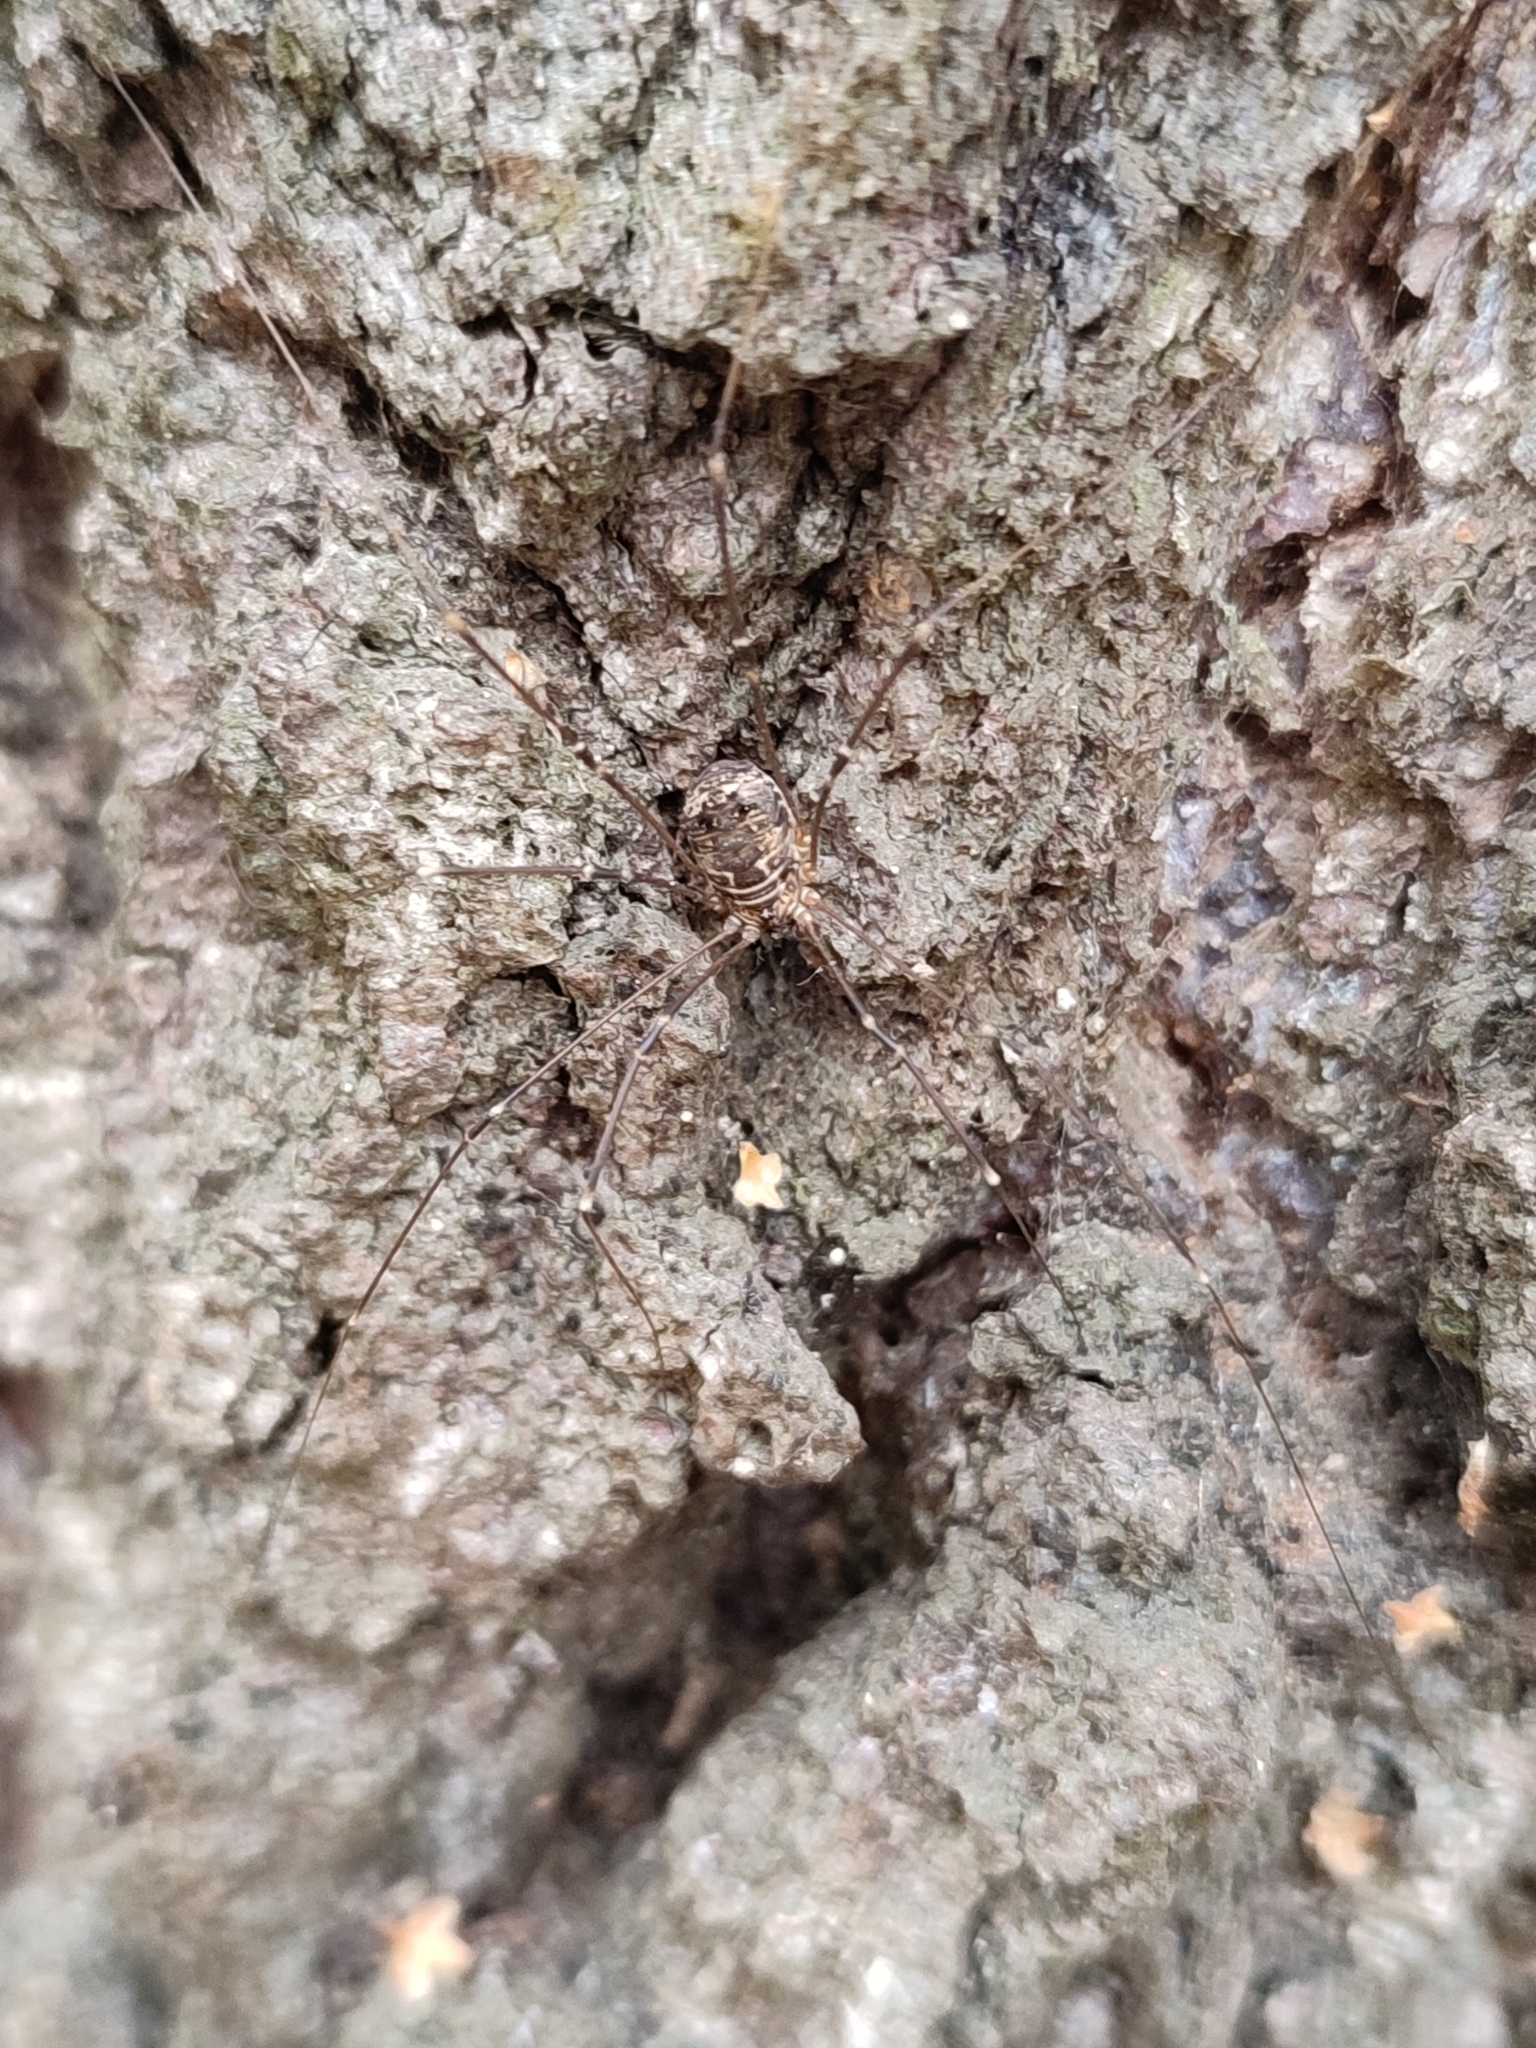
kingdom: Animalia
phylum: Arthropoda
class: Arachnida
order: Opiliones
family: Sclerosomatidae
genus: Leiobunum
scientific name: Leiobunum gracile
